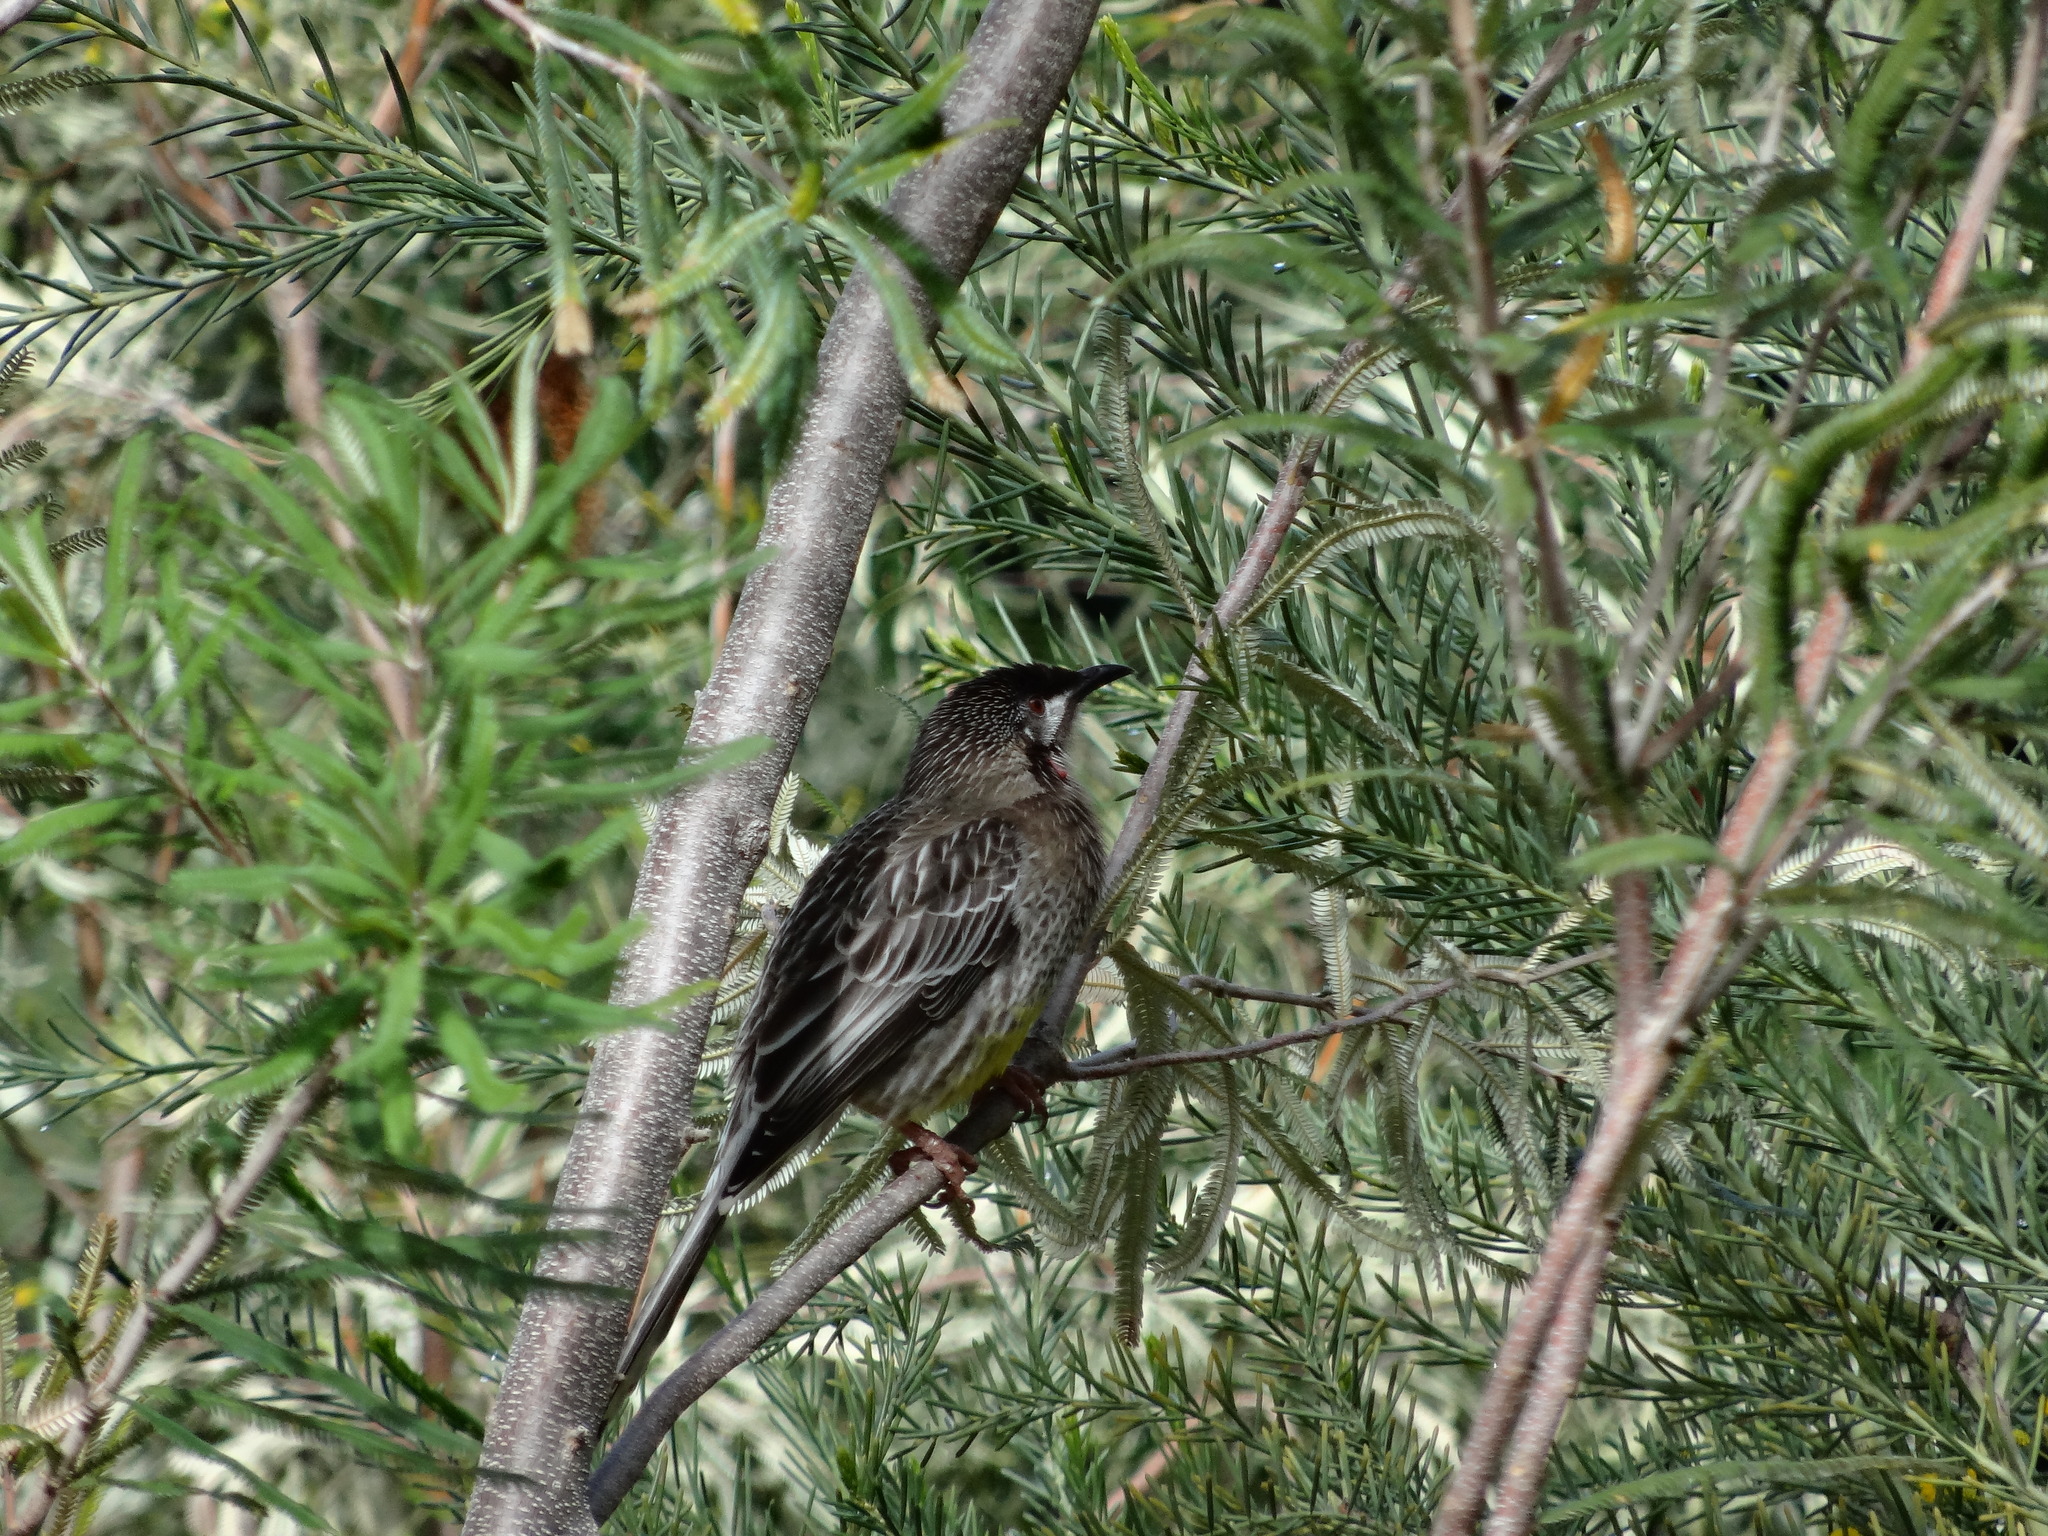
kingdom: Animalia
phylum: Chordata
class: Aves
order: Passeriformes
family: Meliphagidae
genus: Anthochaera
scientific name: Anthochaera carunculata
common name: Red wattlebird
